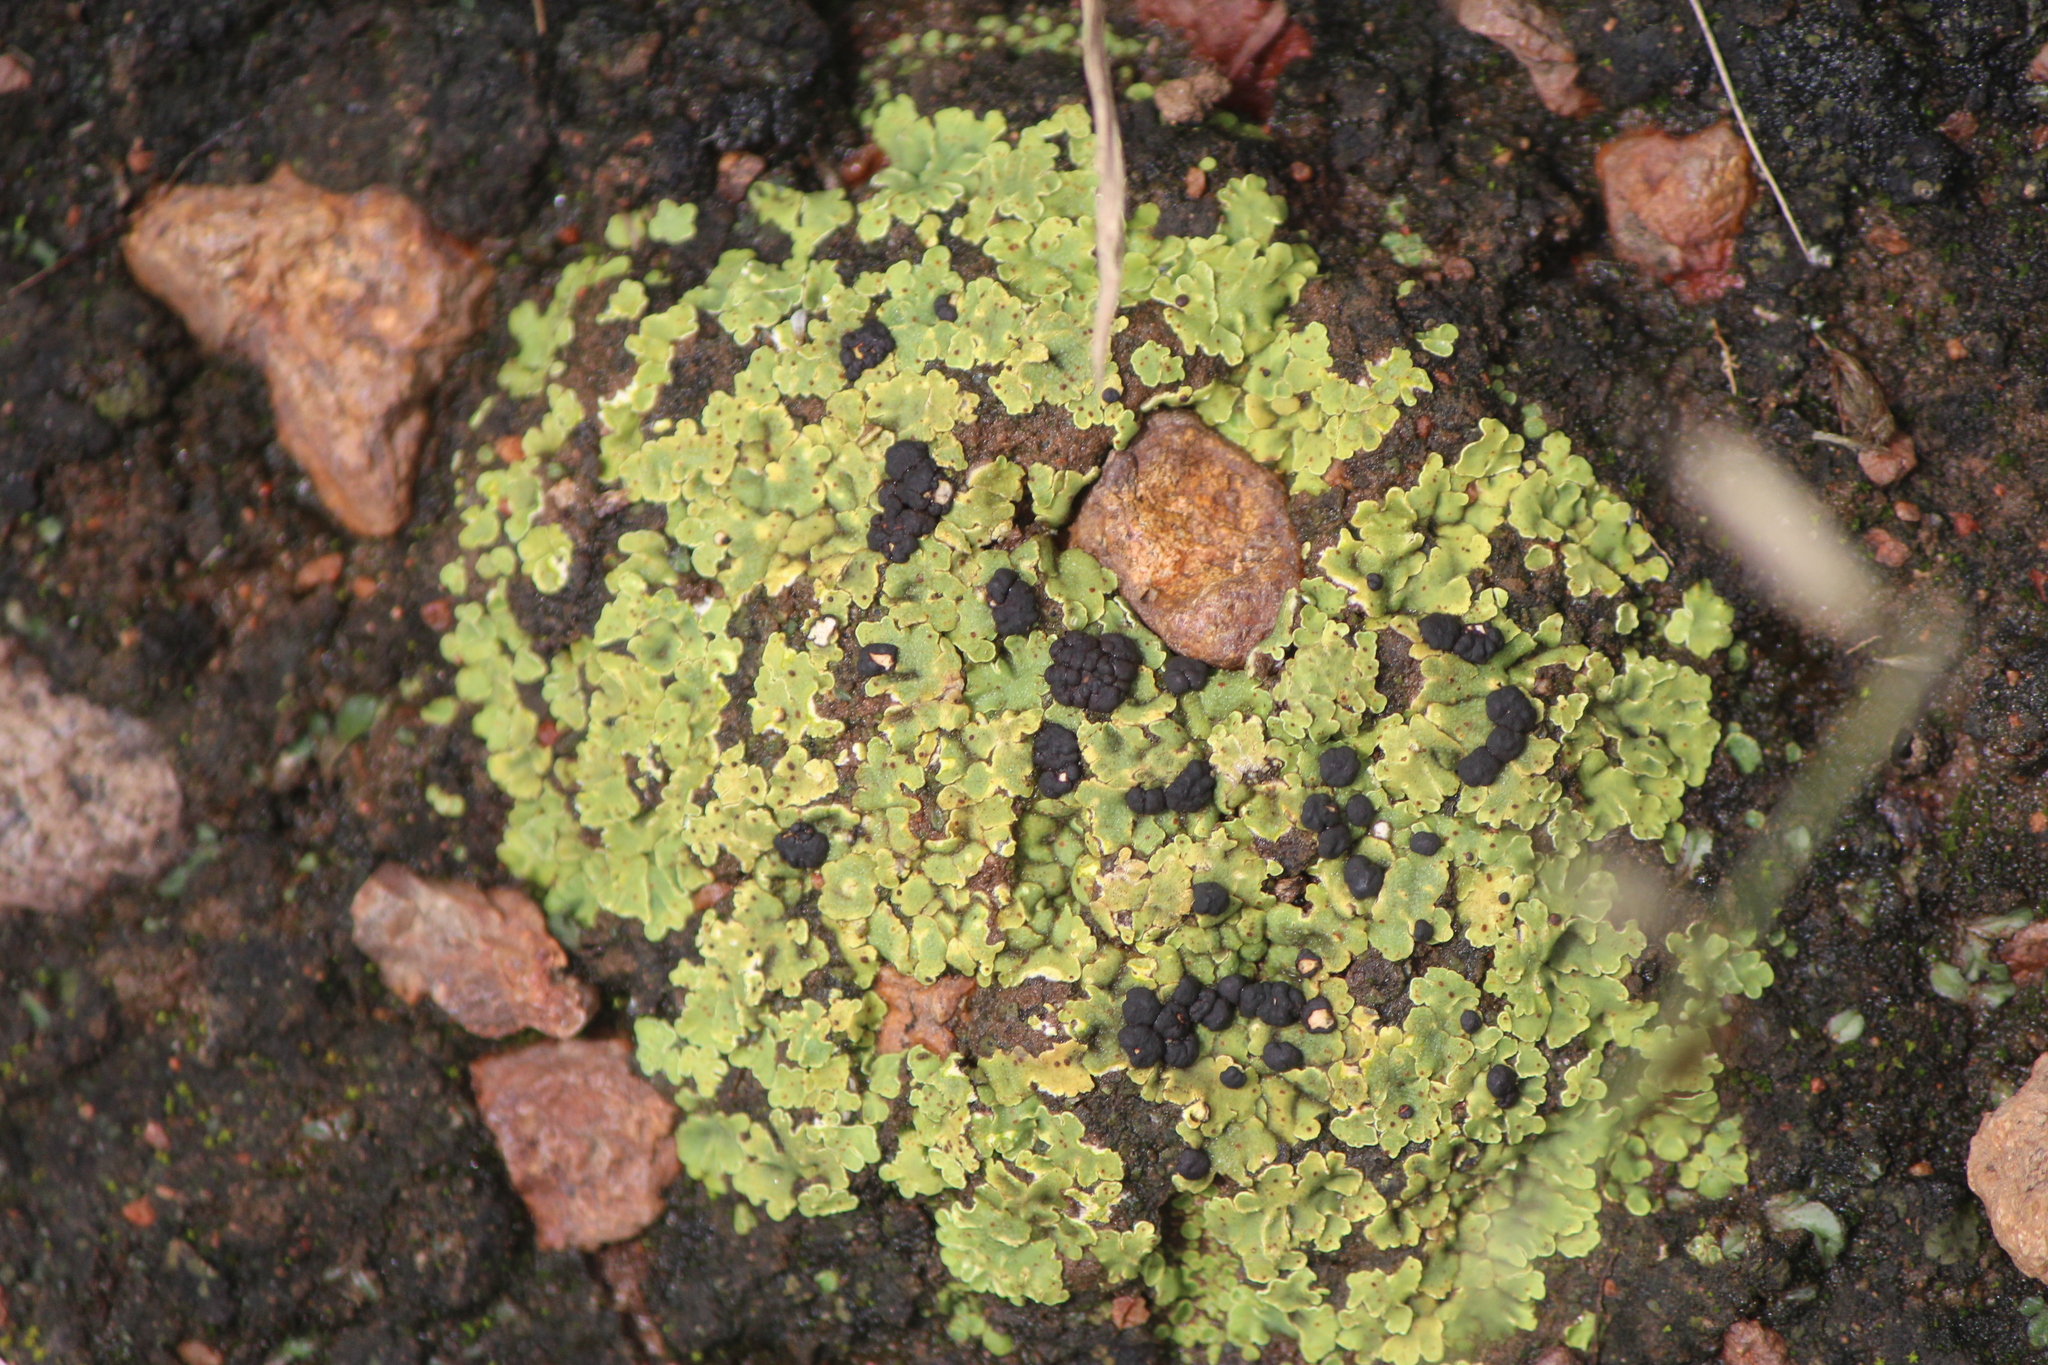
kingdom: Fungi
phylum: Ascomycota
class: Lecanoromycetes
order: Lecanorales
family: Psoraceae
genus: Psora
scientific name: Psora icterica
